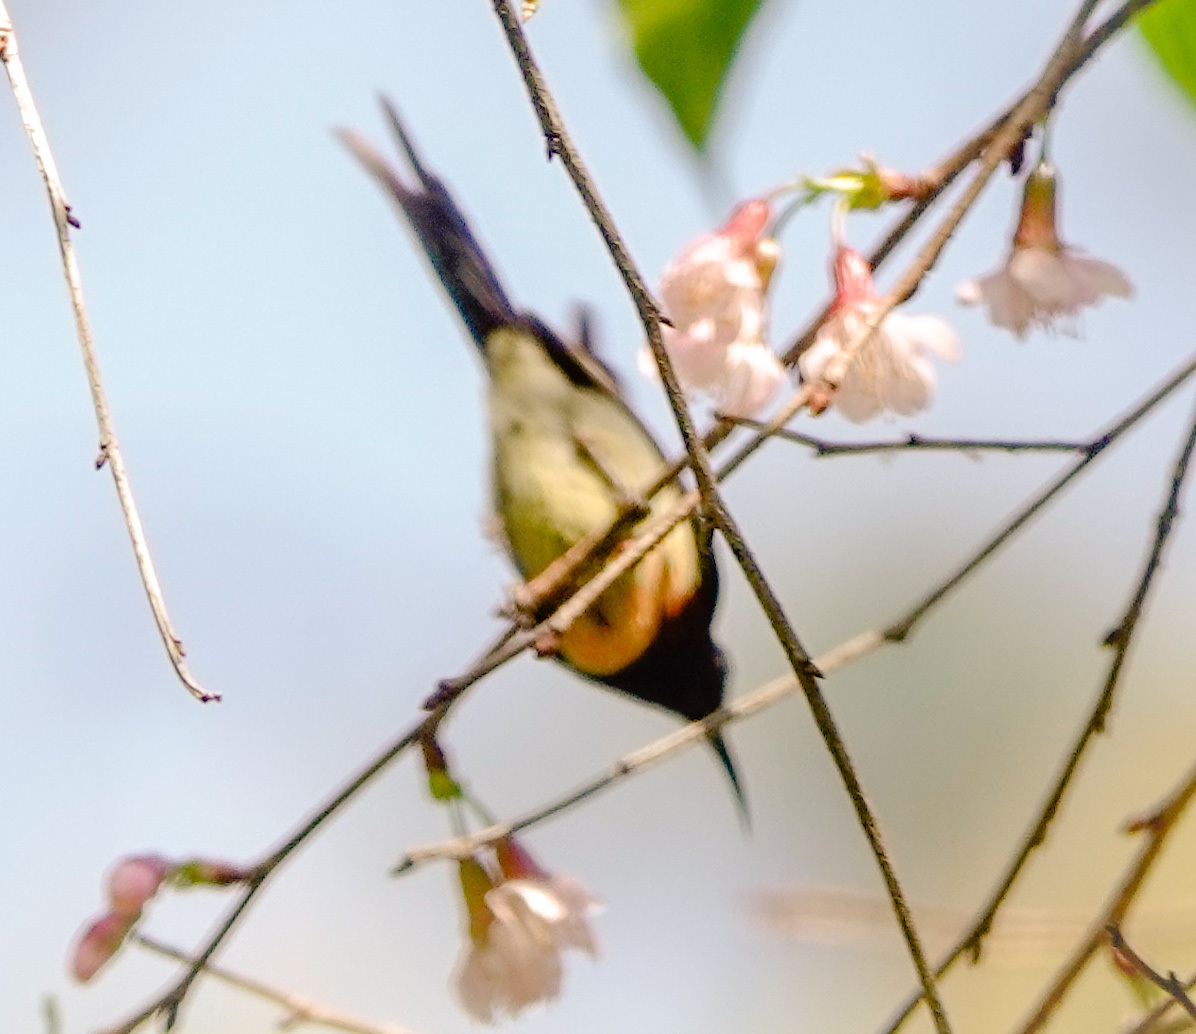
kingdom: Animalia
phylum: Chordata
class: Aves
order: Passeriformes
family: Nectariniidae
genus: Aethopyga
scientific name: Aethopyga saturata
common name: Black-throated sunbird
